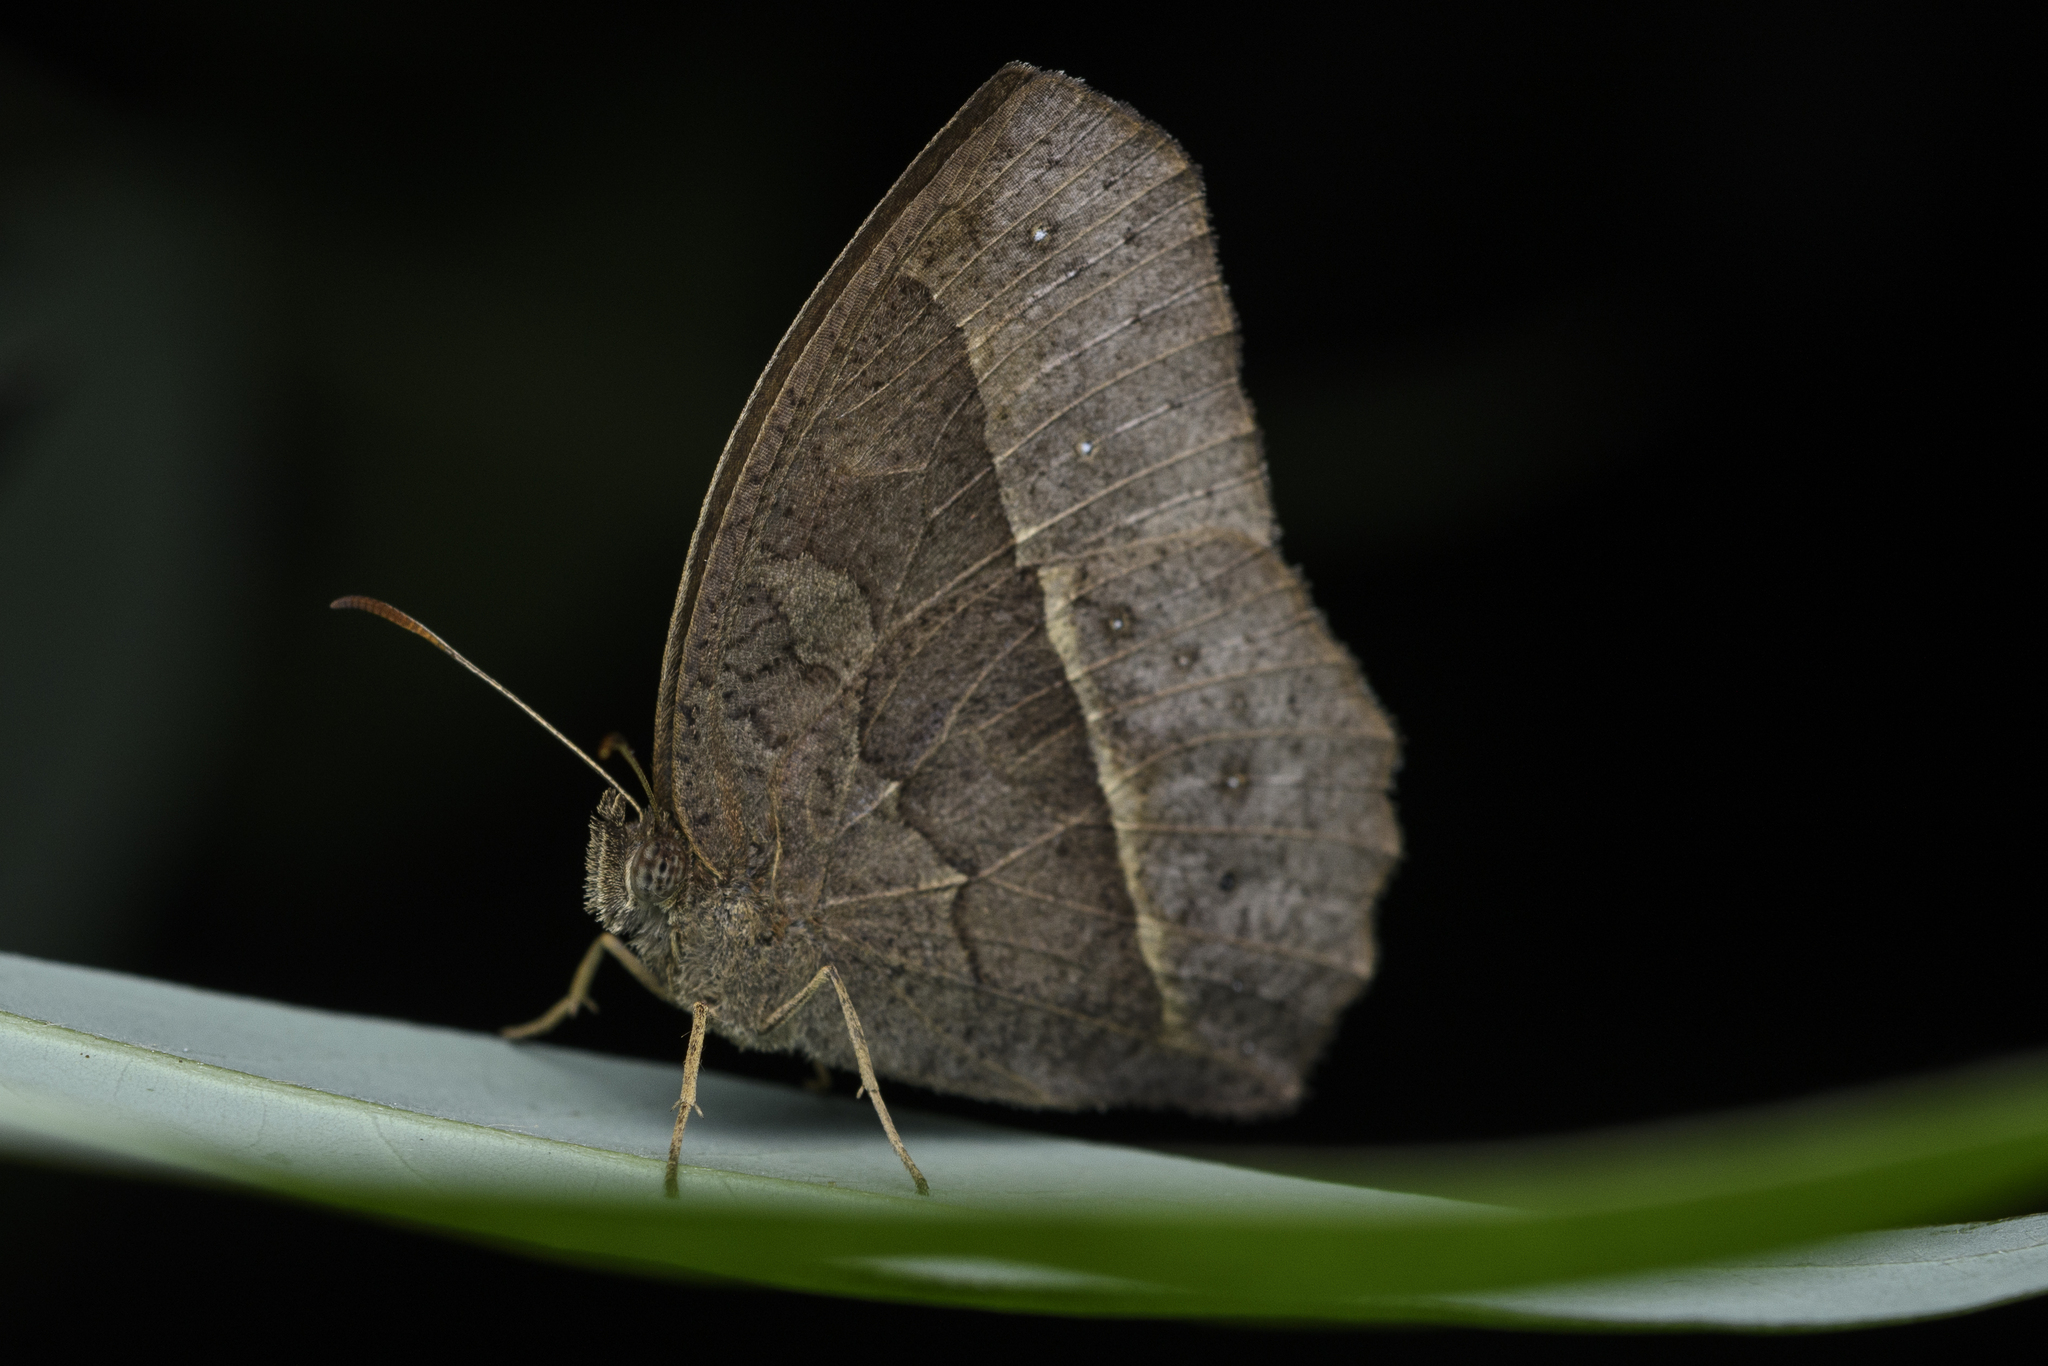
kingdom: Animalia
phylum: Arthropoda
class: Insecta
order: Lepidoptera
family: Nymphalidae
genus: Mycalesis
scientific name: Mycalesis horsfieldii
